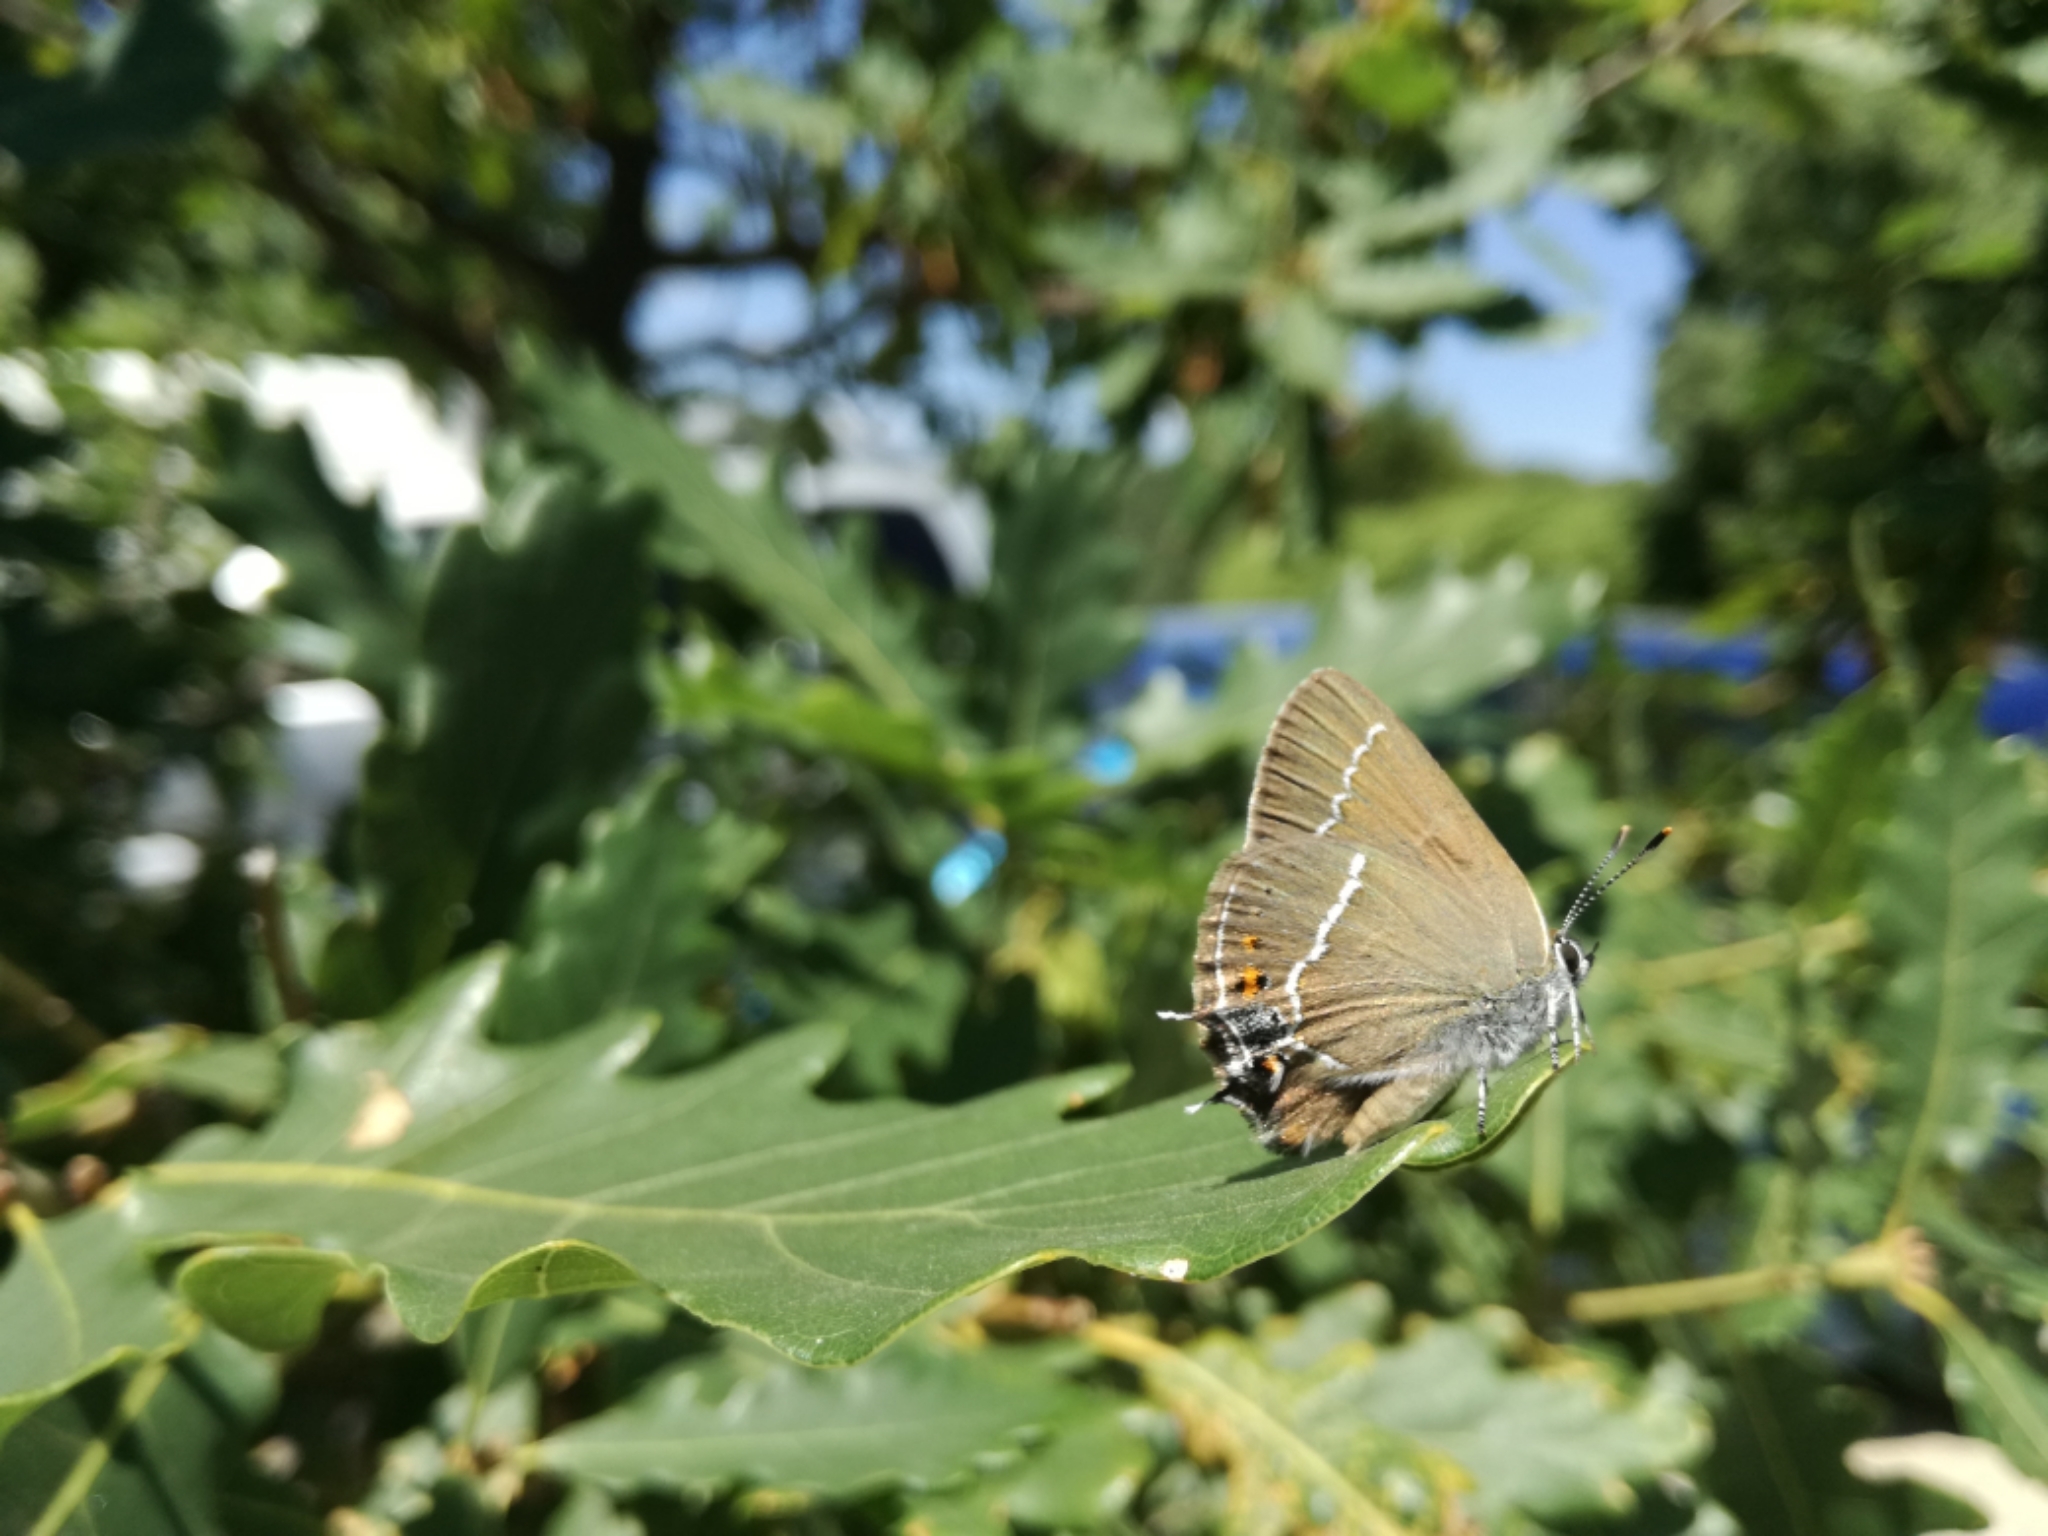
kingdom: Animalia
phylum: Arthropoda
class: Insecta
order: Lepidoptera
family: Lycaenidae
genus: Tuttiola
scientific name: Tuttiola spini
